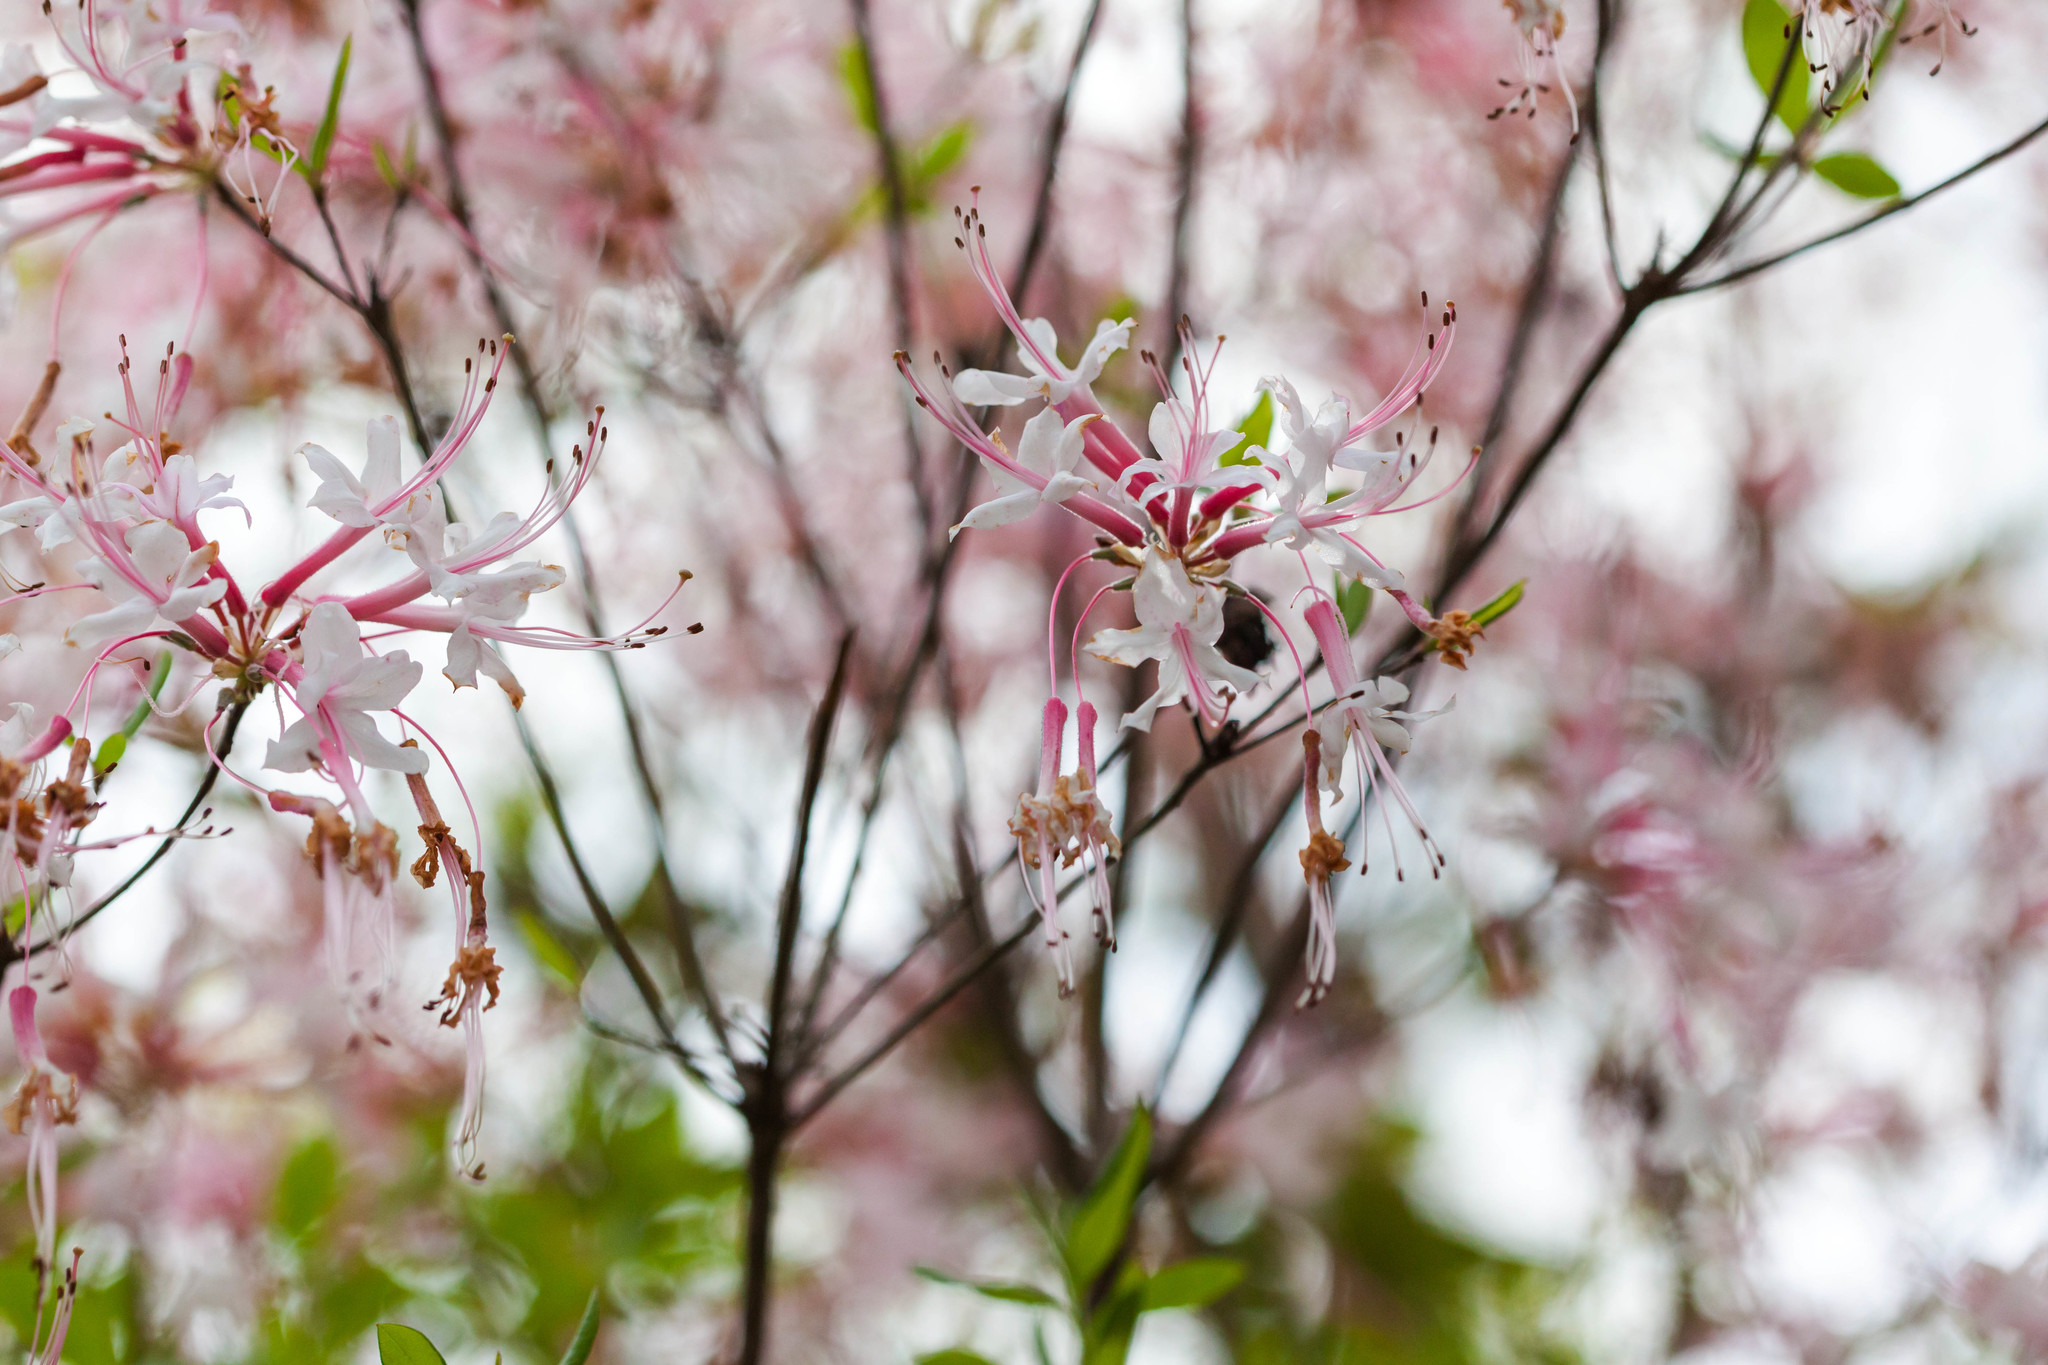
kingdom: Plantae
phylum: Tracheophyta
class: Magnoliopsida
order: Ericales
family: Ericaceae
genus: Rhododendron
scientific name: Rhododendron canescens
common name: Mountain azalea
